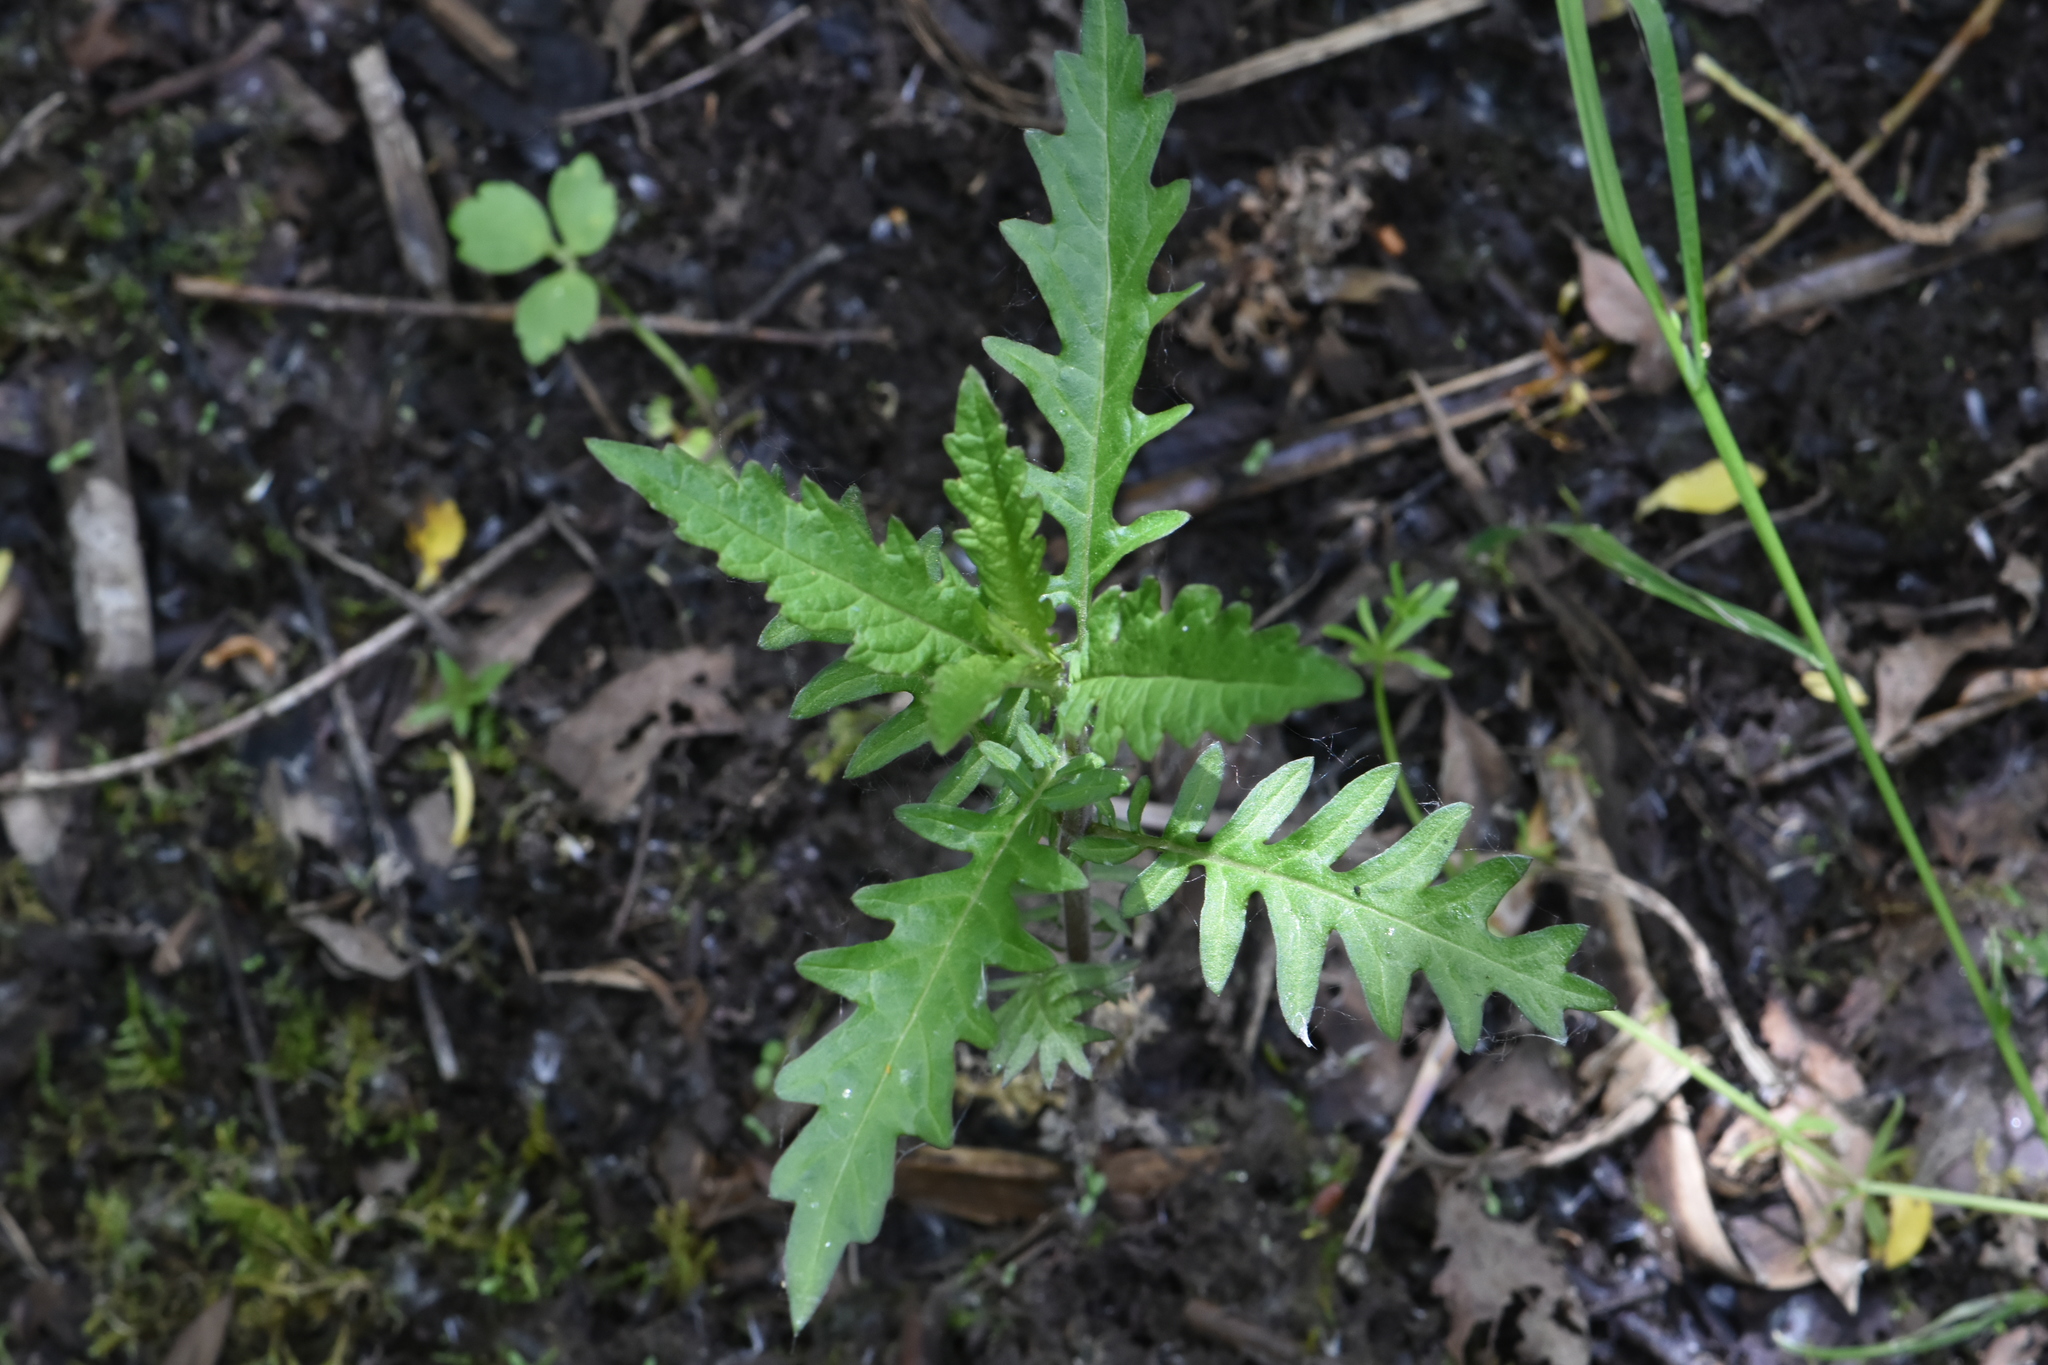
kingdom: Plantae
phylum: Tracheophyta
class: Magnoliopsida
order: Lamiales
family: Lamiaceae
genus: Lycopus
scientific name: Lycopus europaeus
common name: European bugleweed
